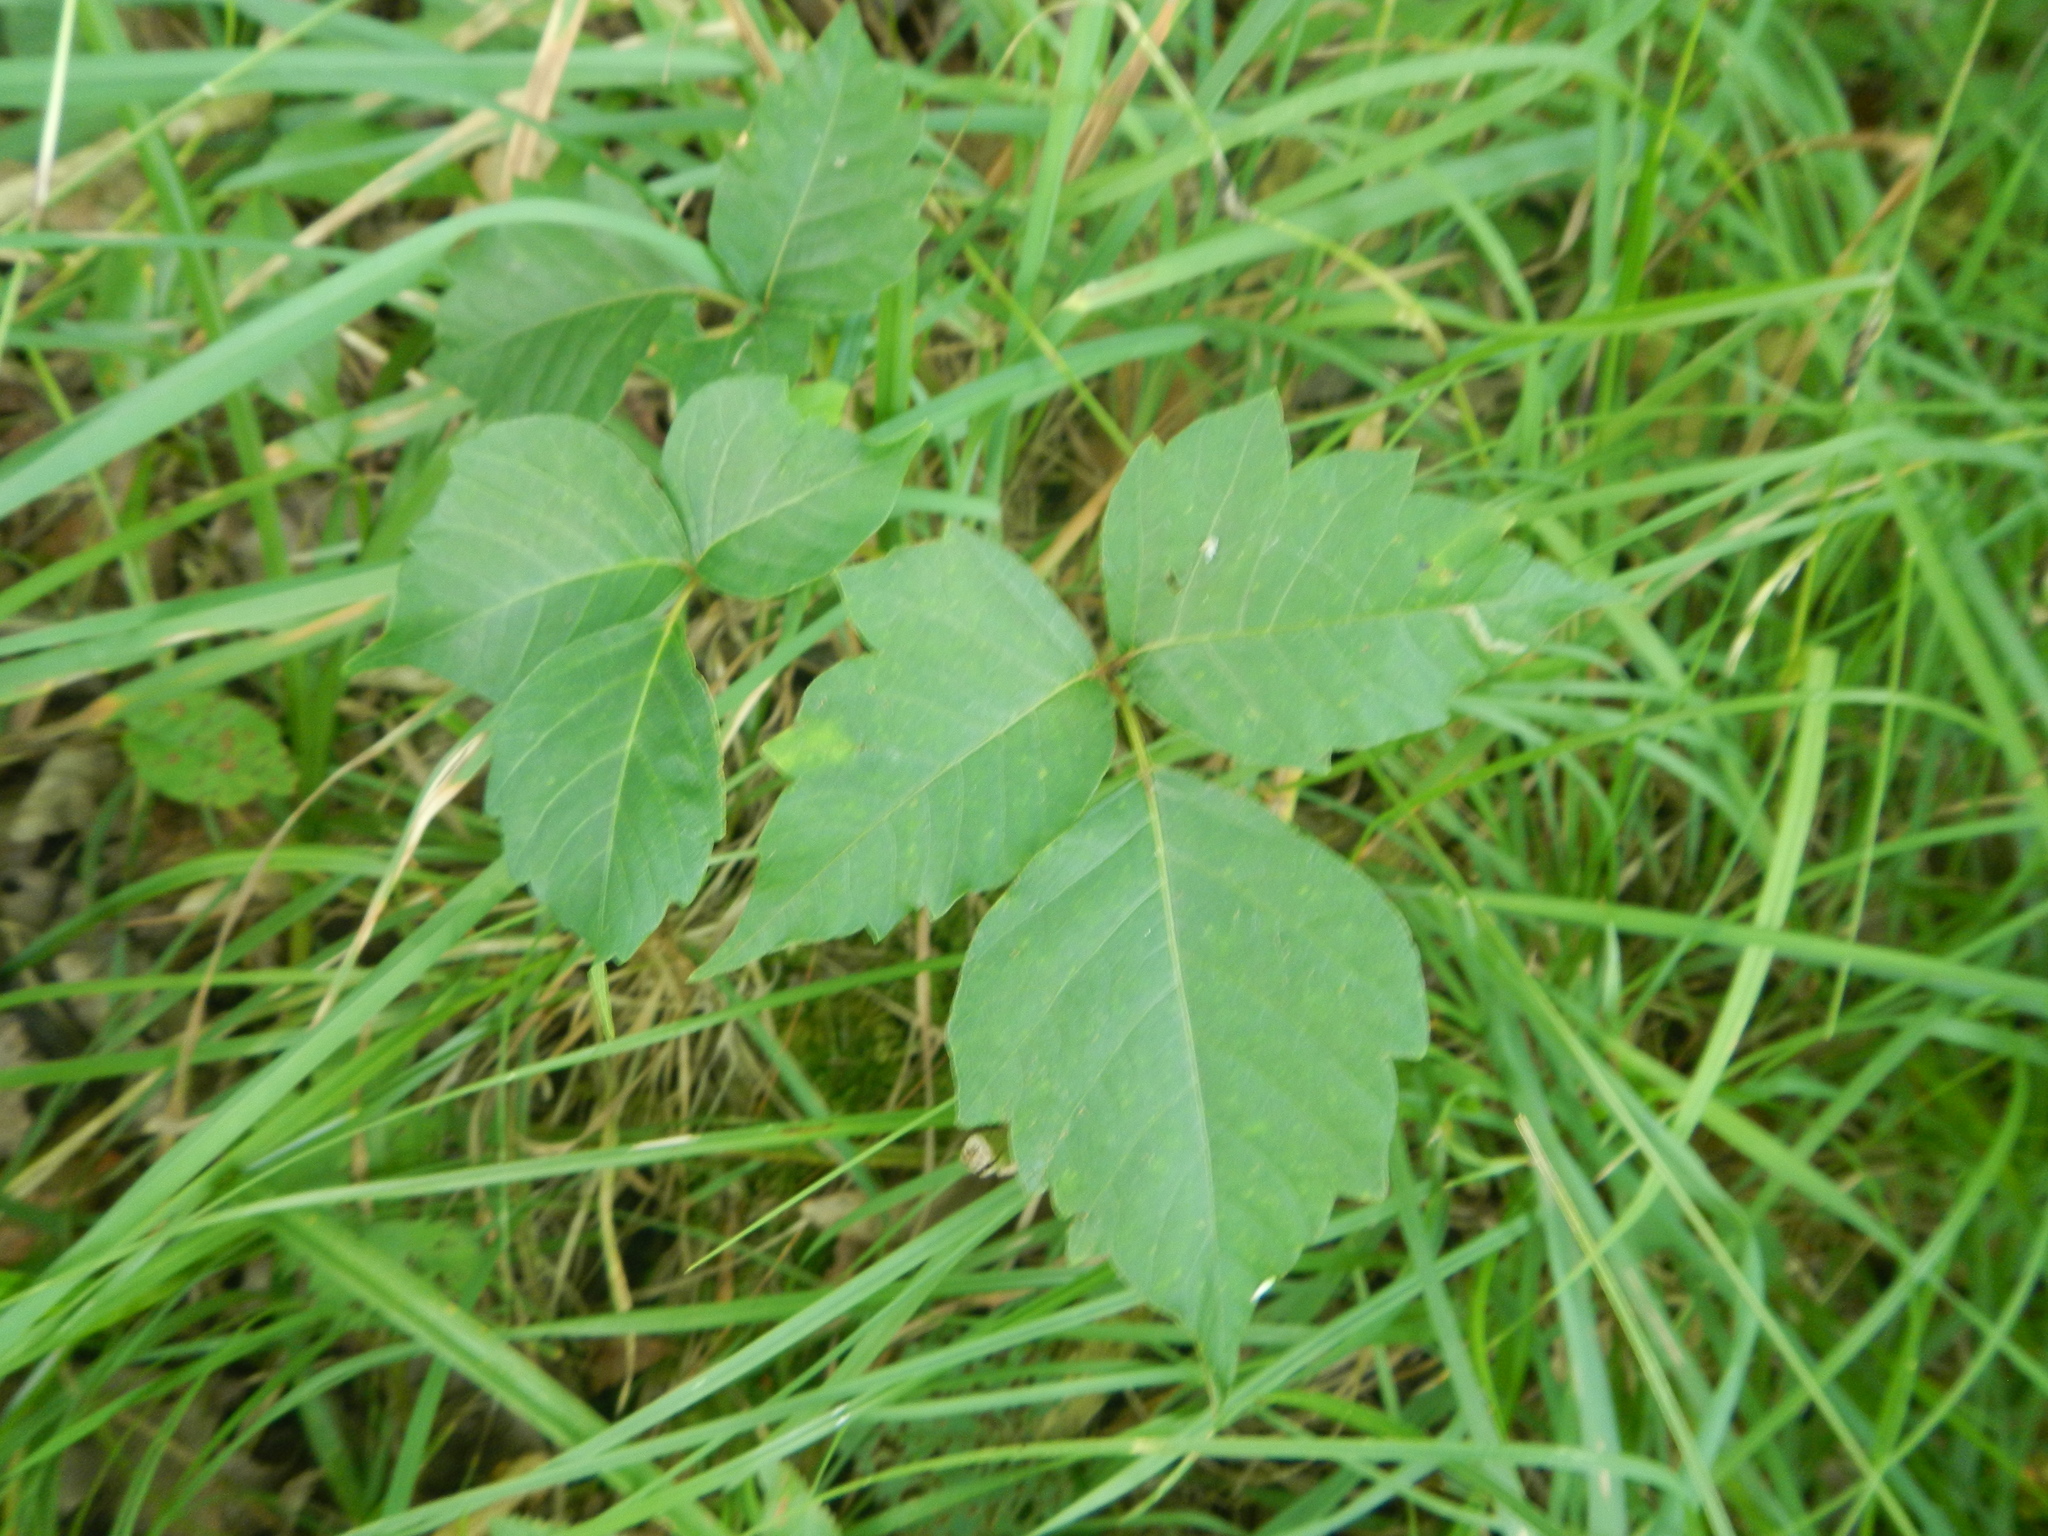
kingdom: Plantae
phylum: Tracheophyta
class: Magnoliopsida
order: Sapindales
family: Anacardiaceae
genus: Toxicodendron
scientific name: Toxicodendron radicans
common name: Poison ivy
